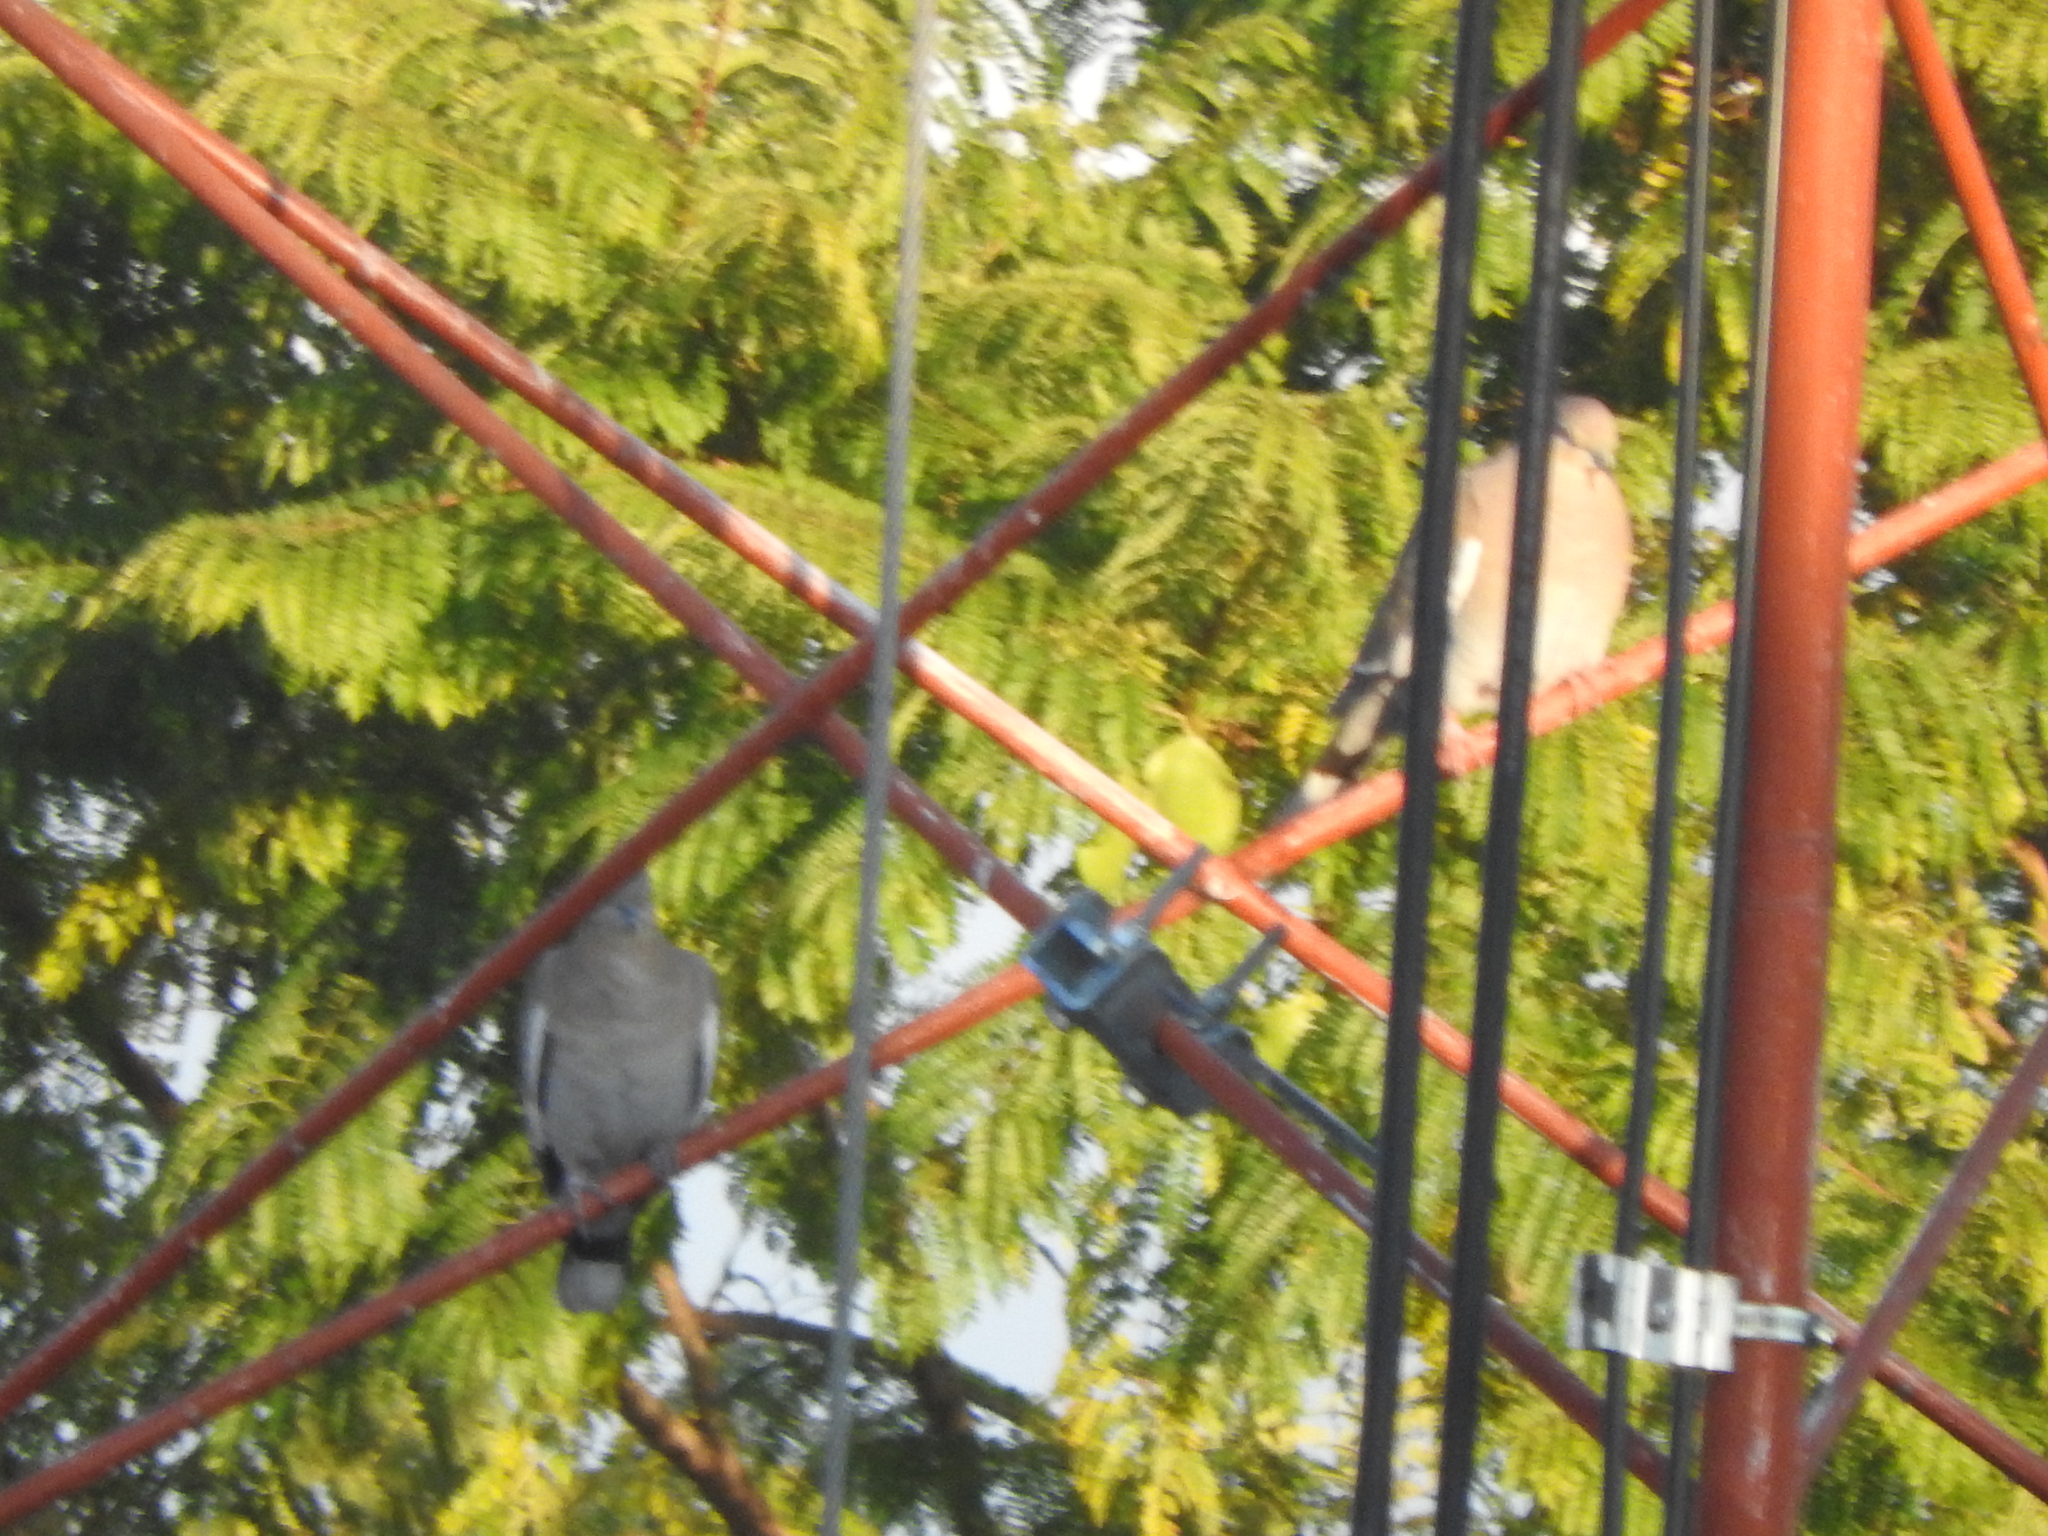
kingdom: Animalia
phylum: Chordata
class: Aves
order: Columbiformes
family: Columbidae
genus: Zenaida
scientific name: Zenaida asiatica
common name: White-winged dove
